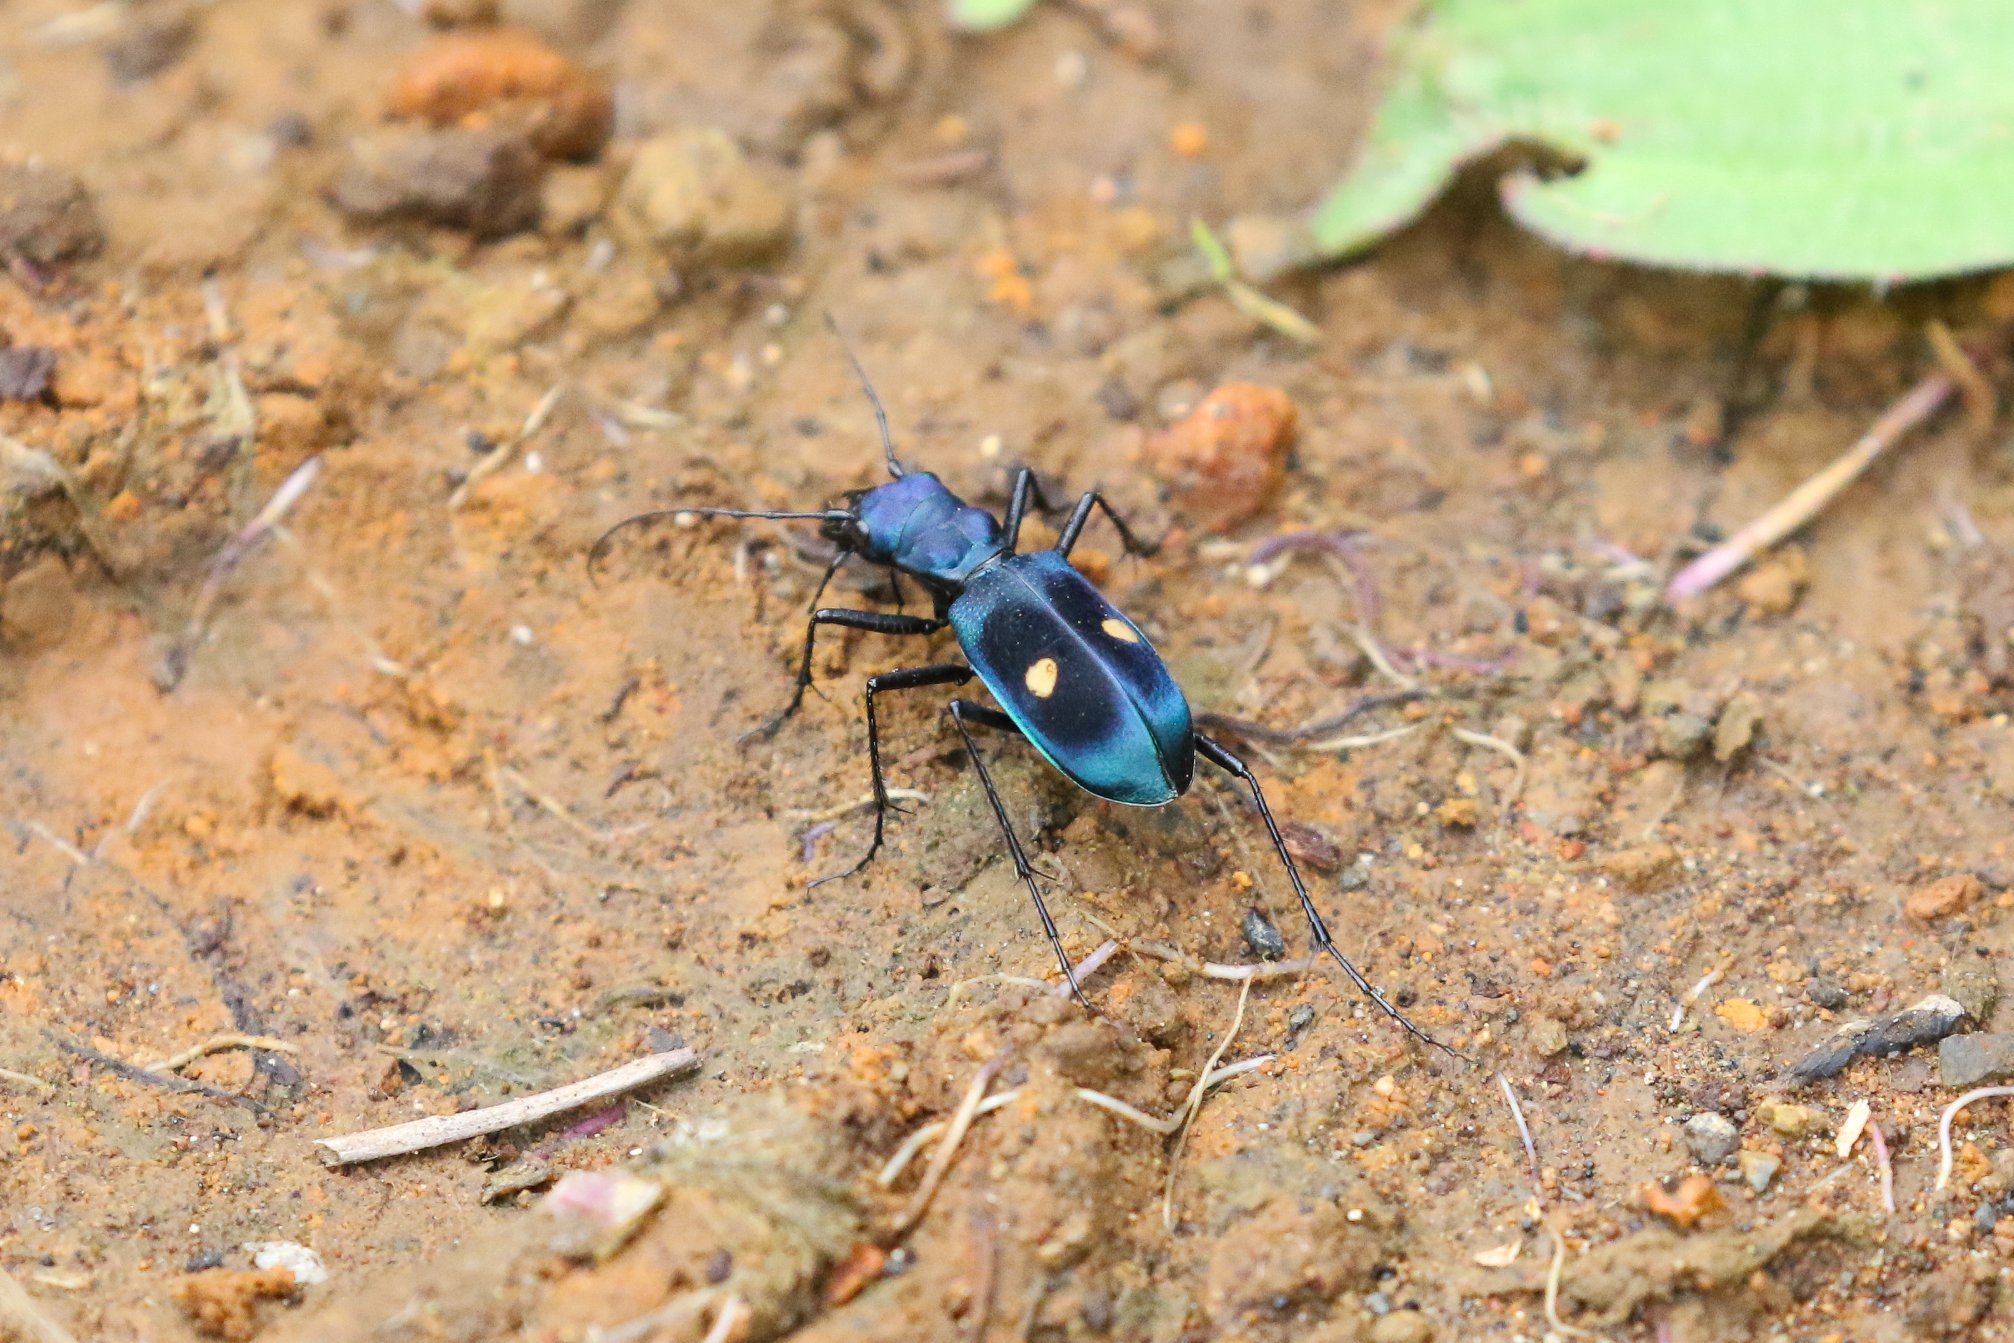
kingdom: Animalia
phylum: Arthropoda
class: Insecta
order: Coleoptera
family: Carabidae
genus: Pseudoxycheila
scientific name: Pseudoxycheila tarsalis
